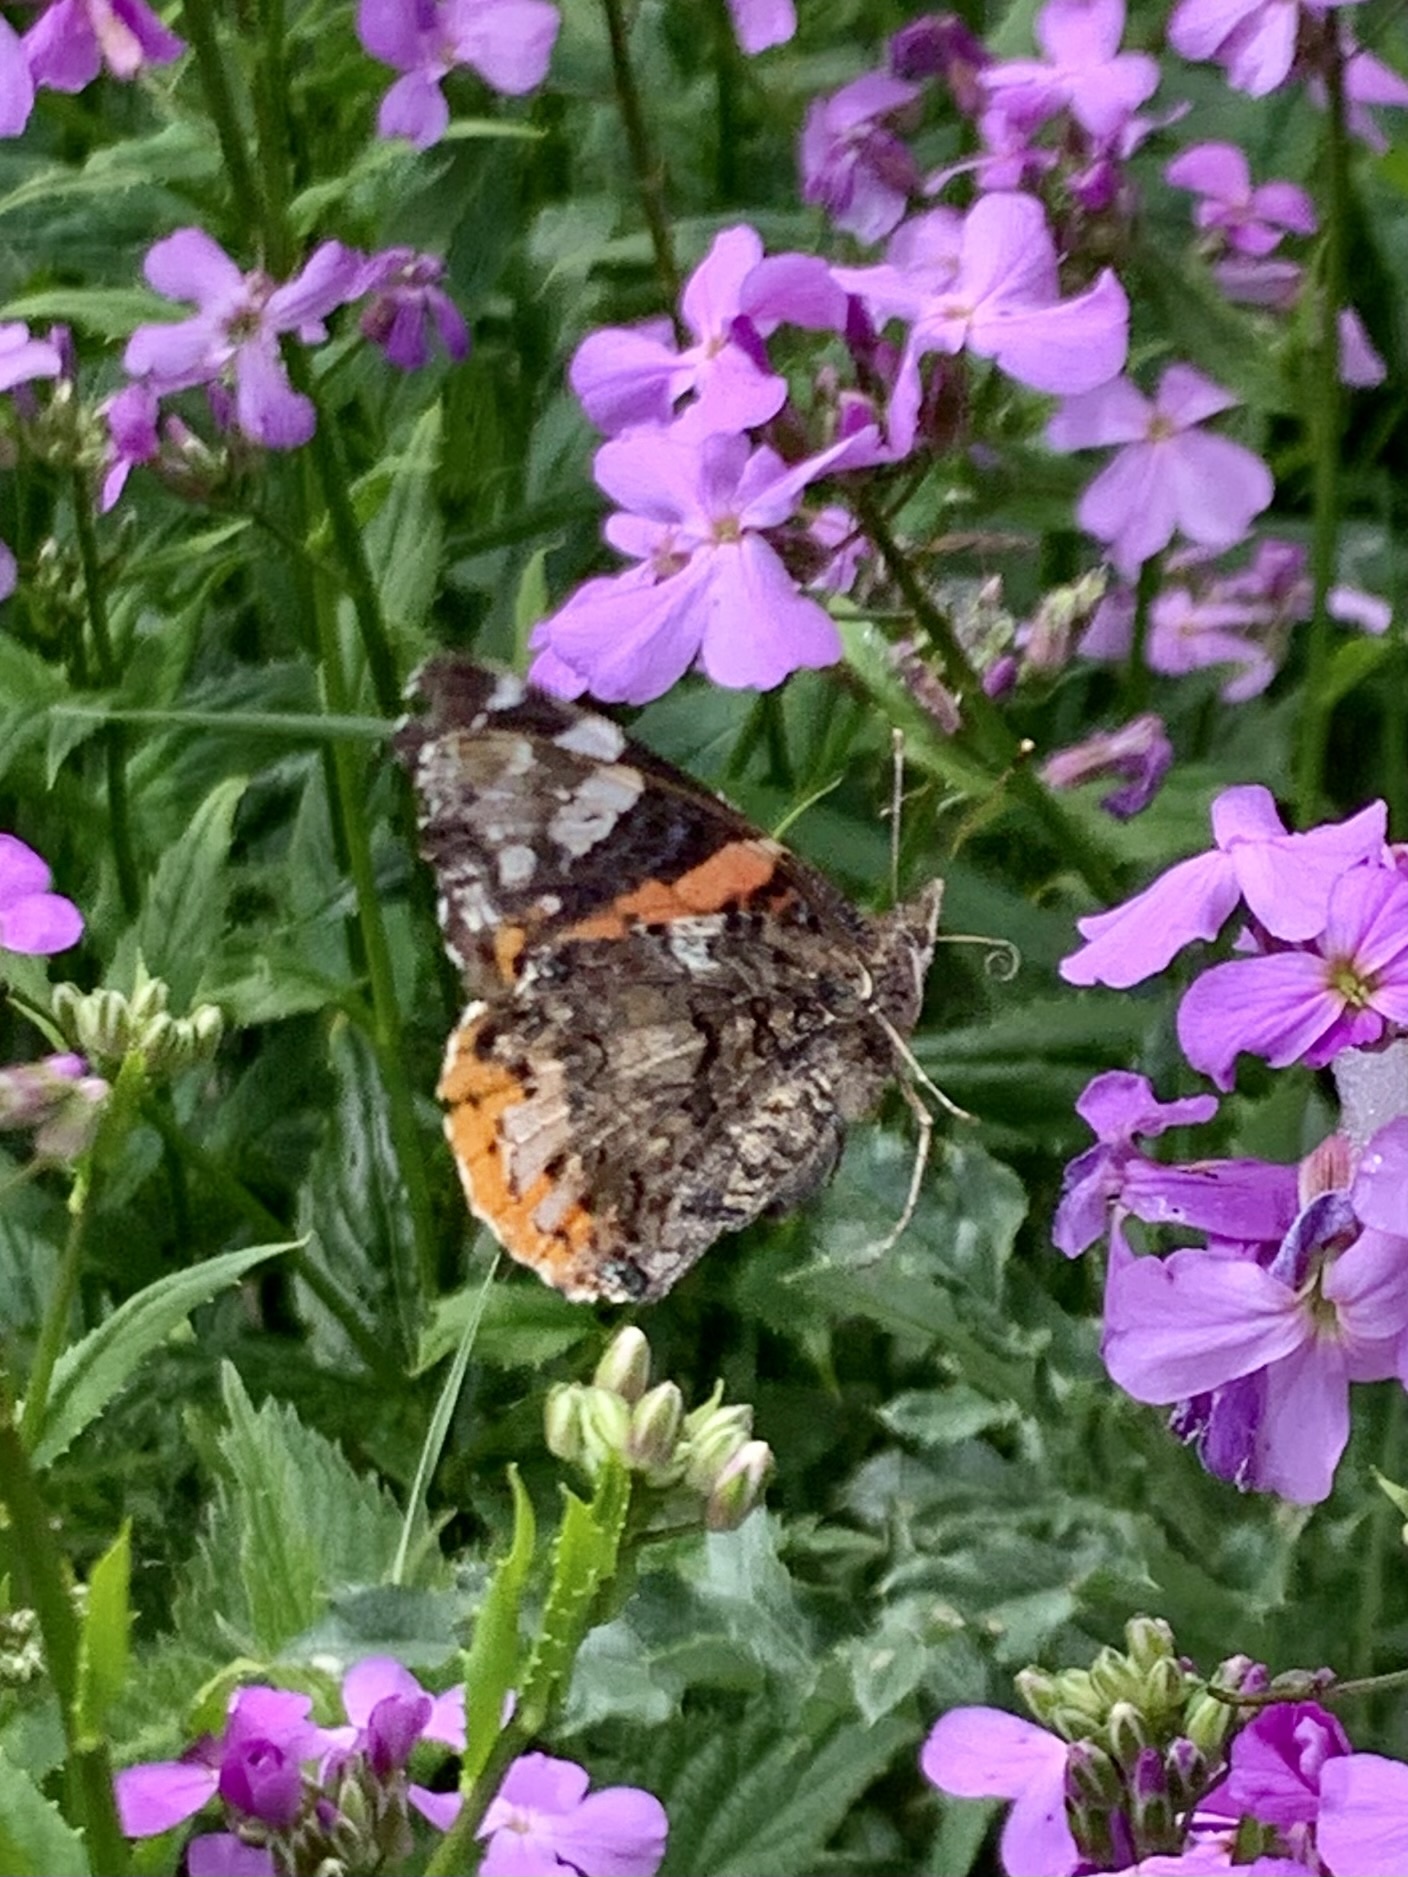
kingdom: Animalia
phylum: Arthropoda
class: Insecta
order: Lepidoptera
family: Nymphalidae
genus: Vanessa
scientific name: Vanessa atalanta
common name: Red admiral
